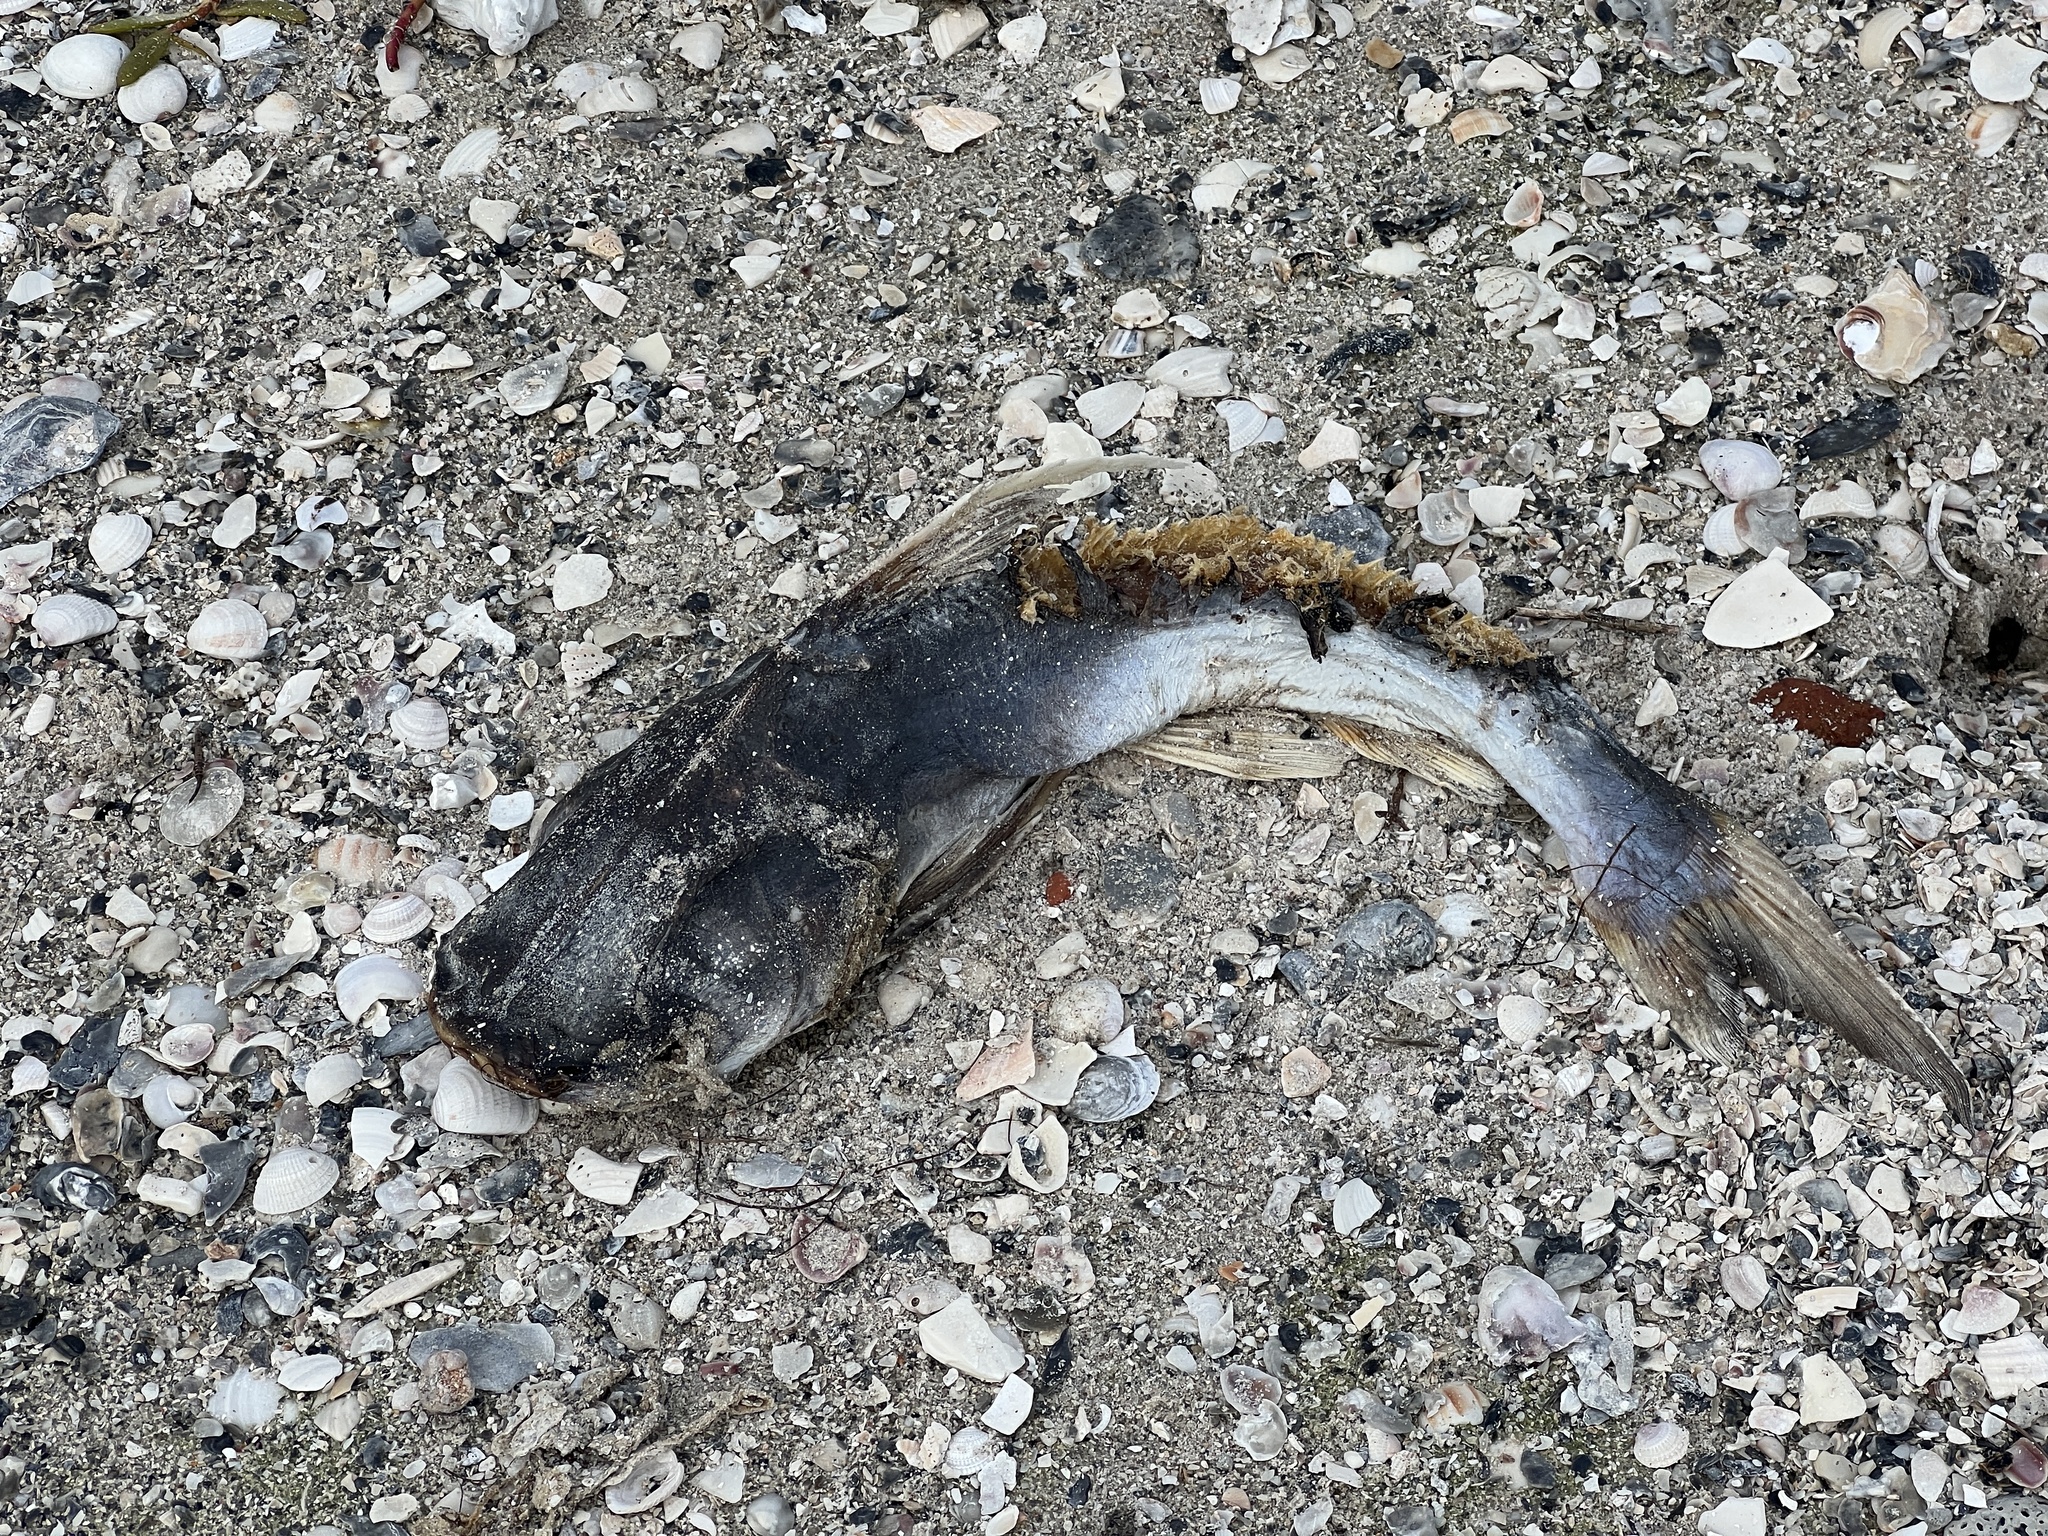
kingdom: Animalia
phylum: Chordata
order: Siluriformes
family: Ariidae
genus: Bagre
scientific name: Bagre marinus
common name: Gafftopsail sea catfish
